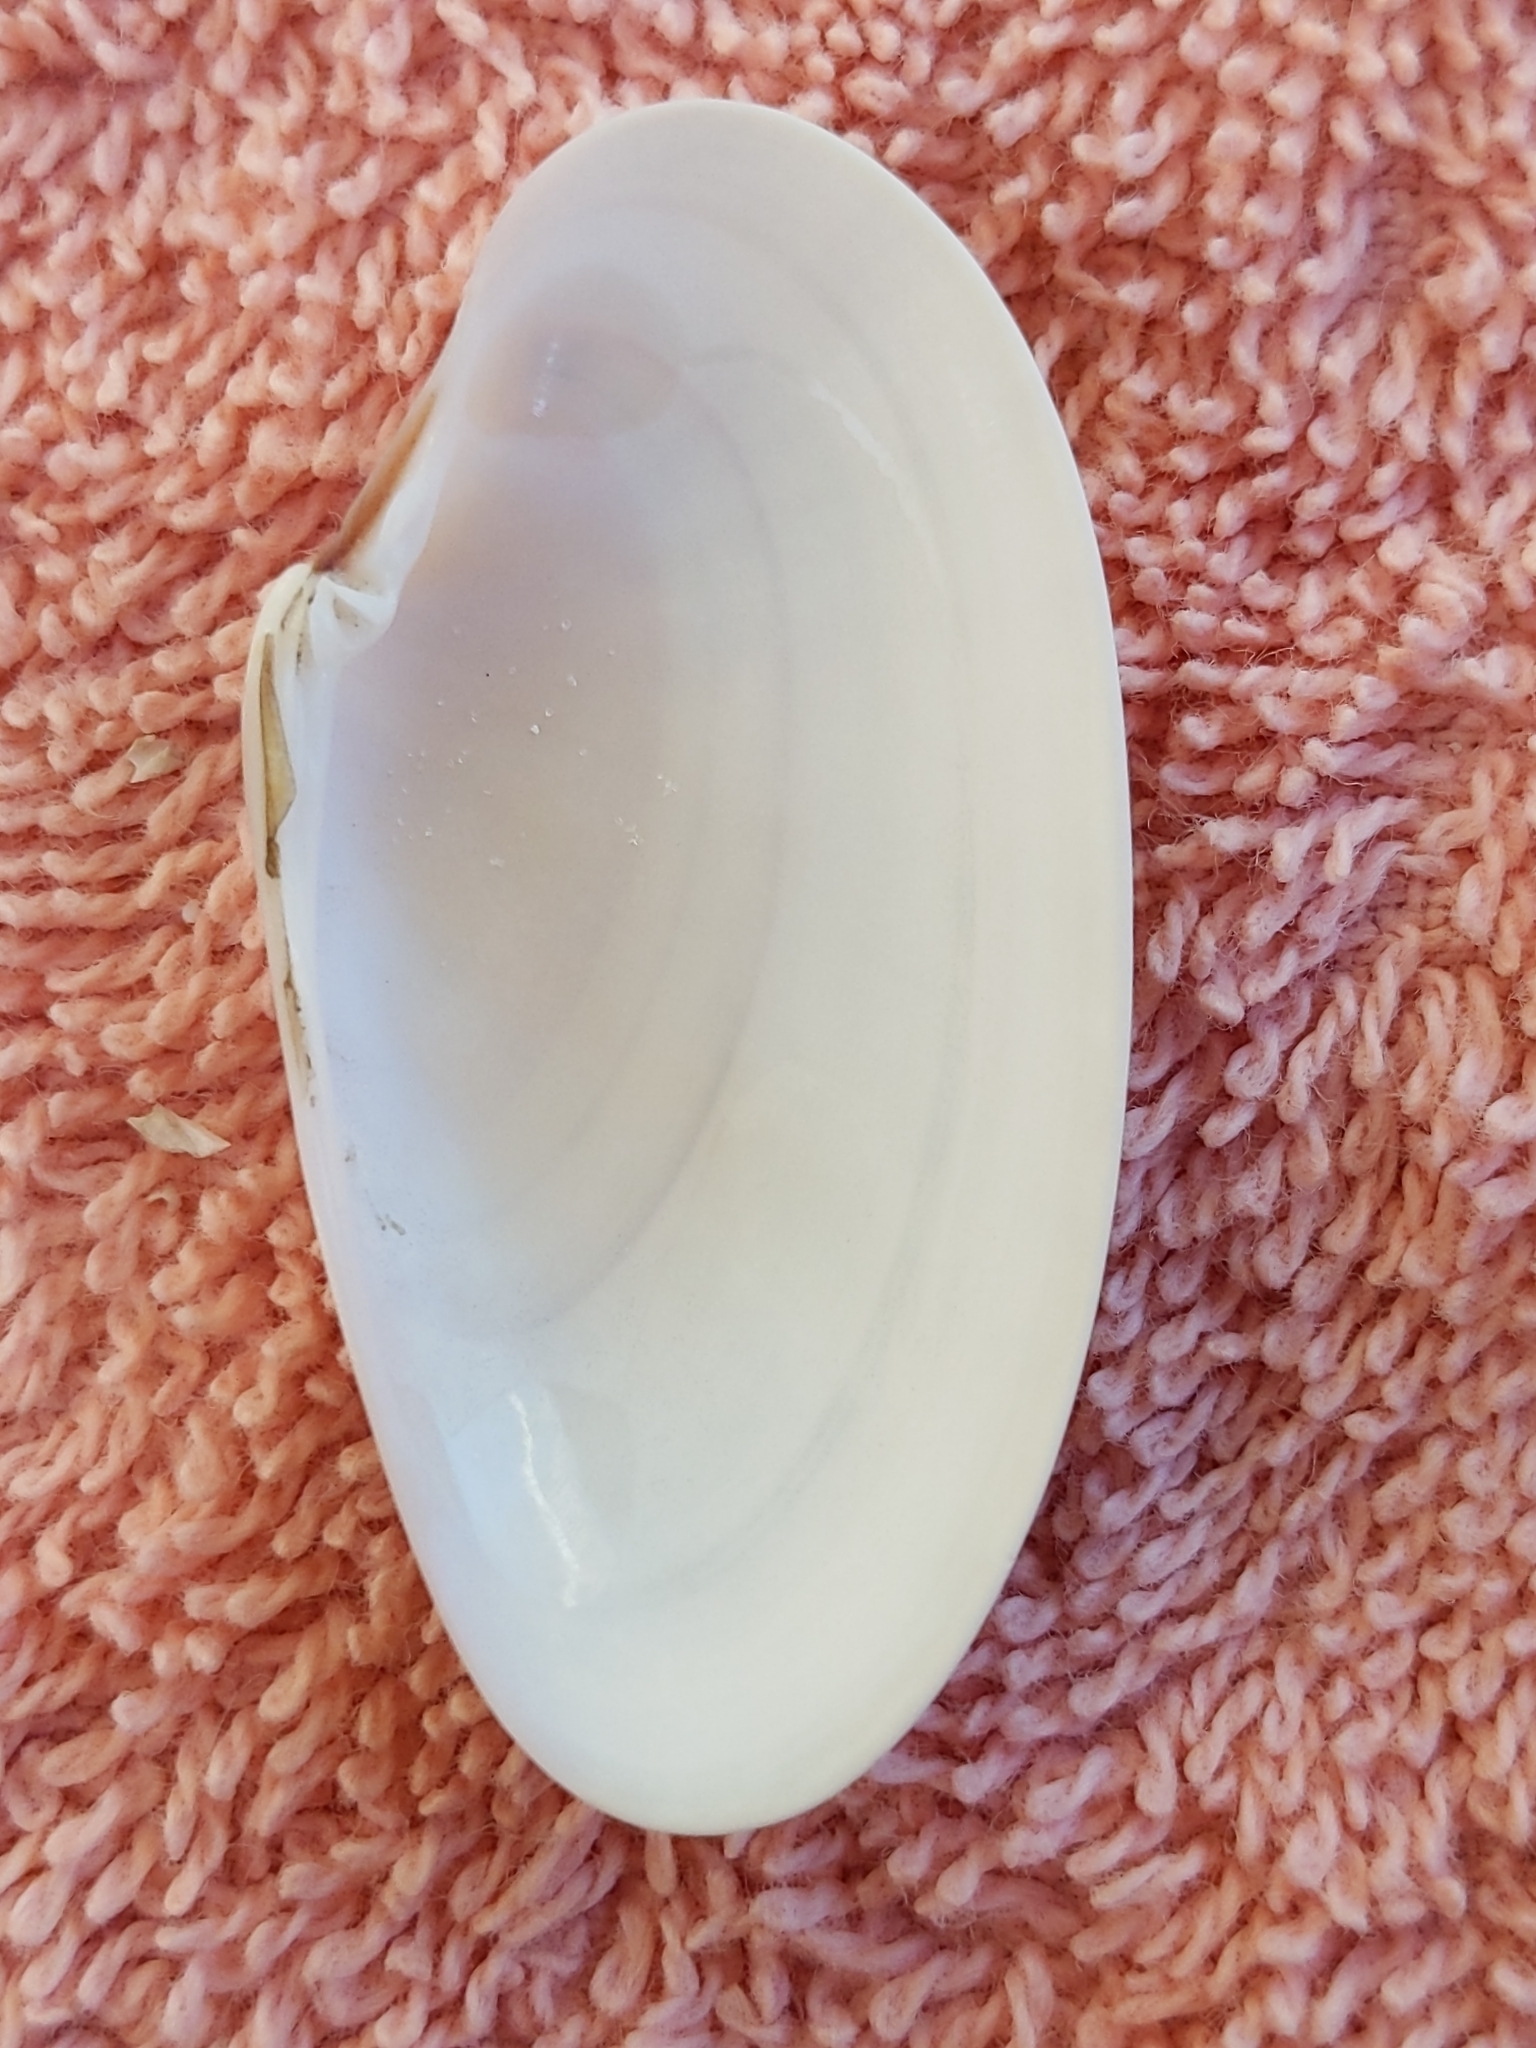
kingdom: Animalia
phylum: Mollusca
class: Bivalvia
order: Venerida
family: Veneridae
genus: Macrocallista
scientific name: Macrocallista nimbosa
